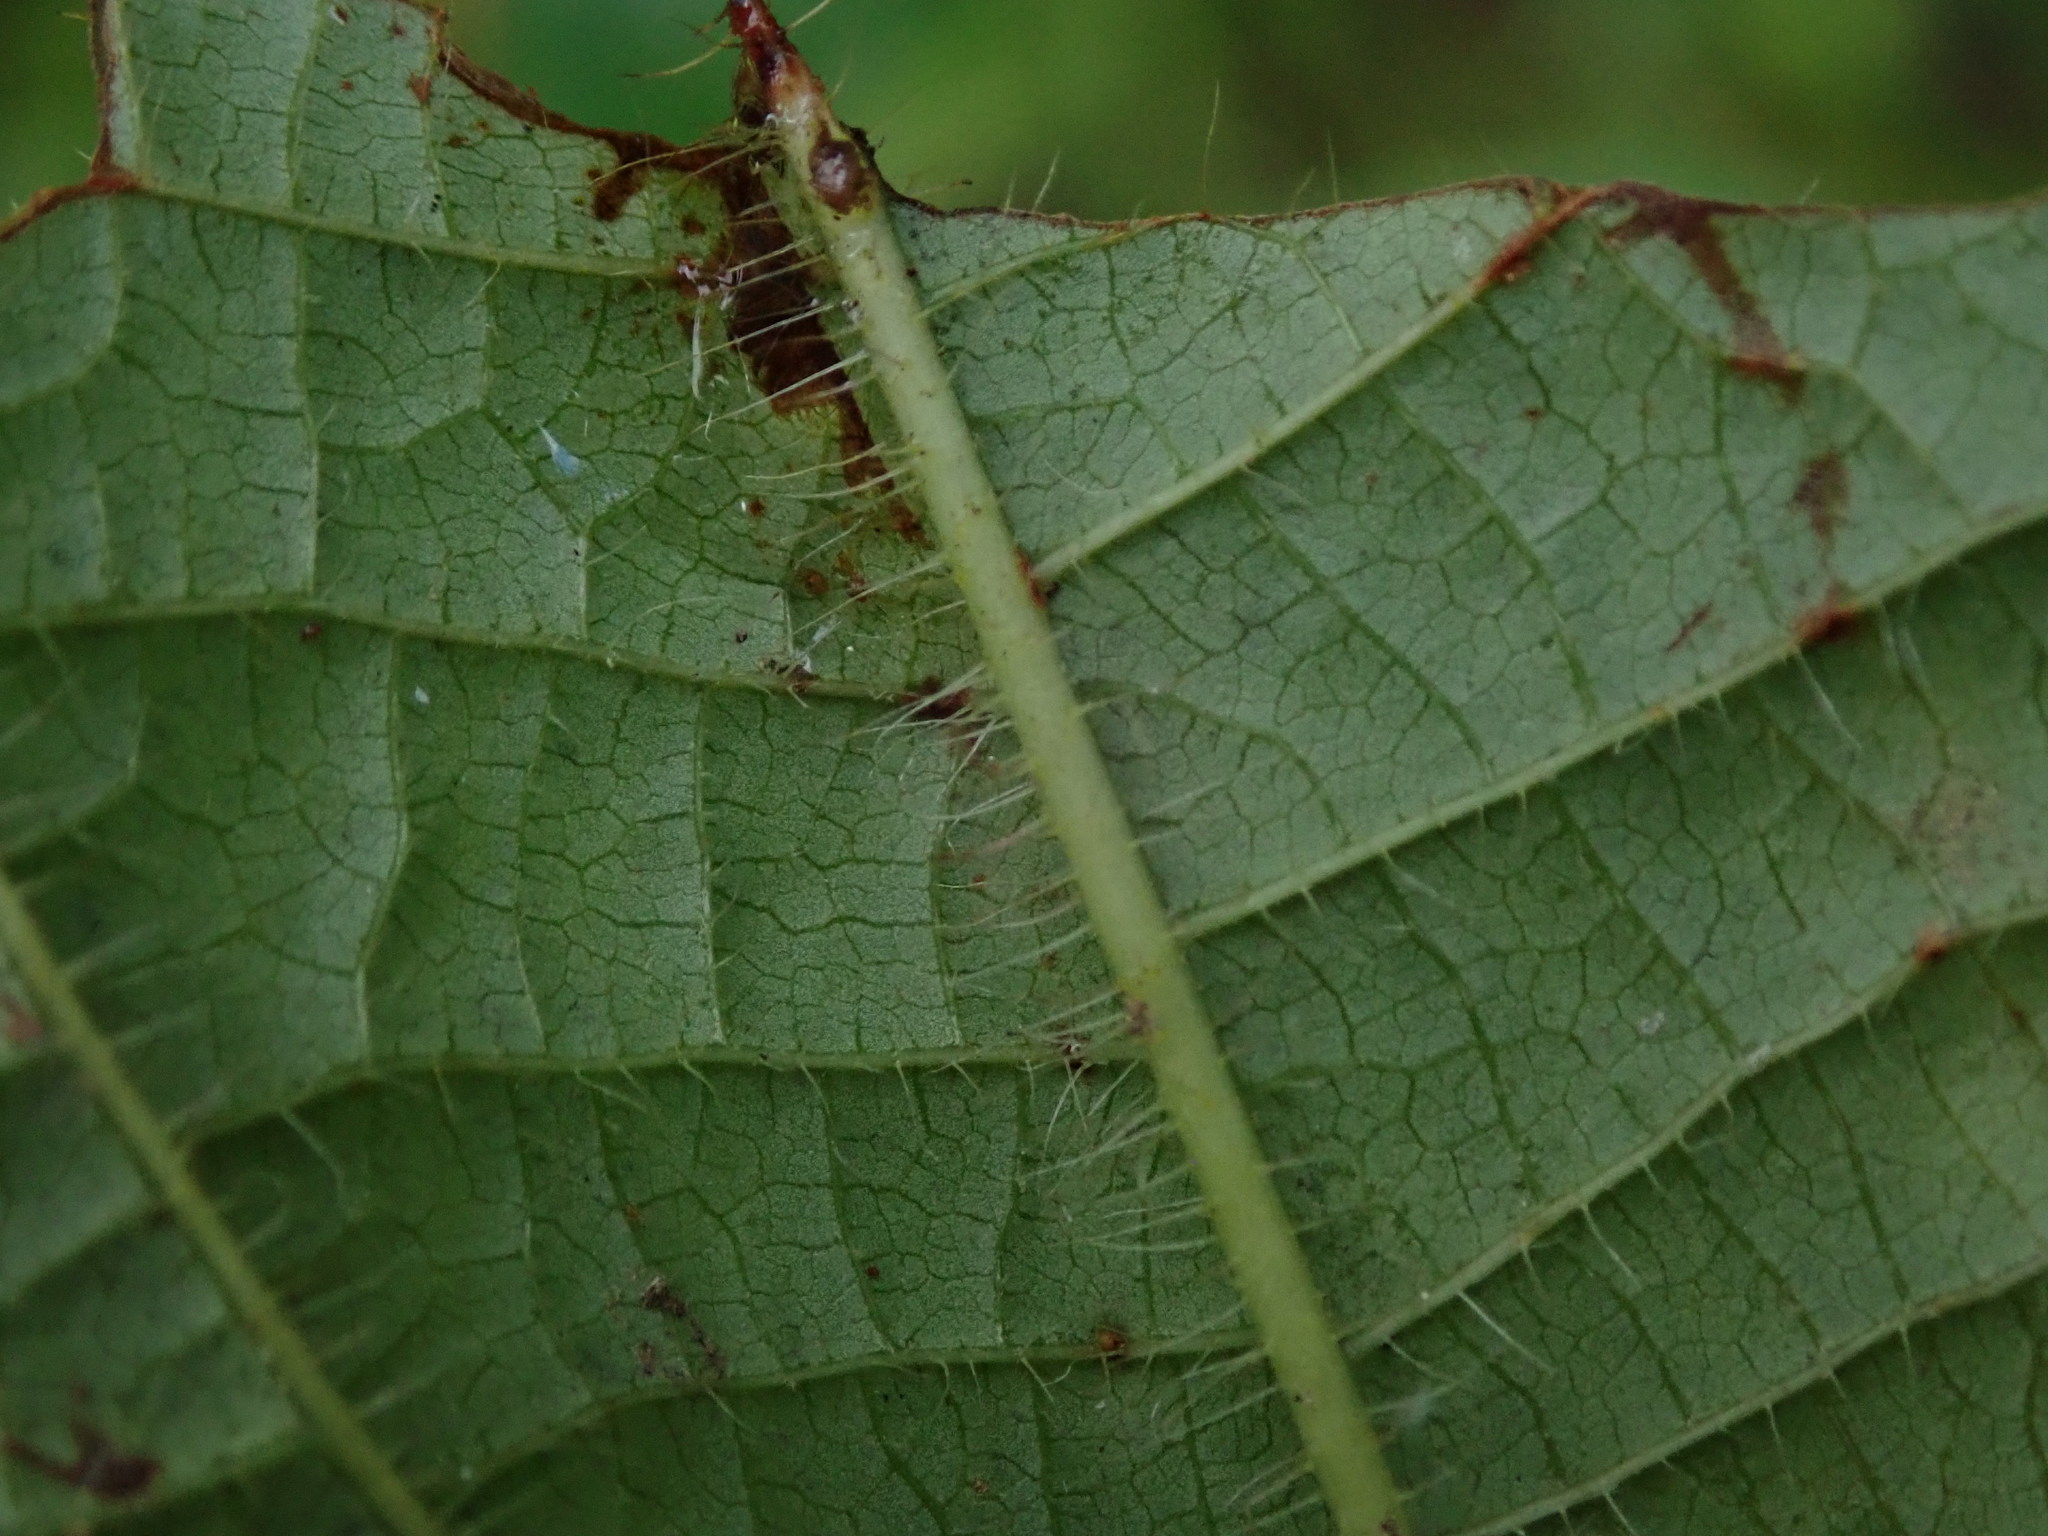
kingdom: Plantae
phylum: Tracheophyta
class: Magnoliopsida
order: Myrtales
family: Melastomataceae
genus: Miconia
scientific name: Miconia crenata
